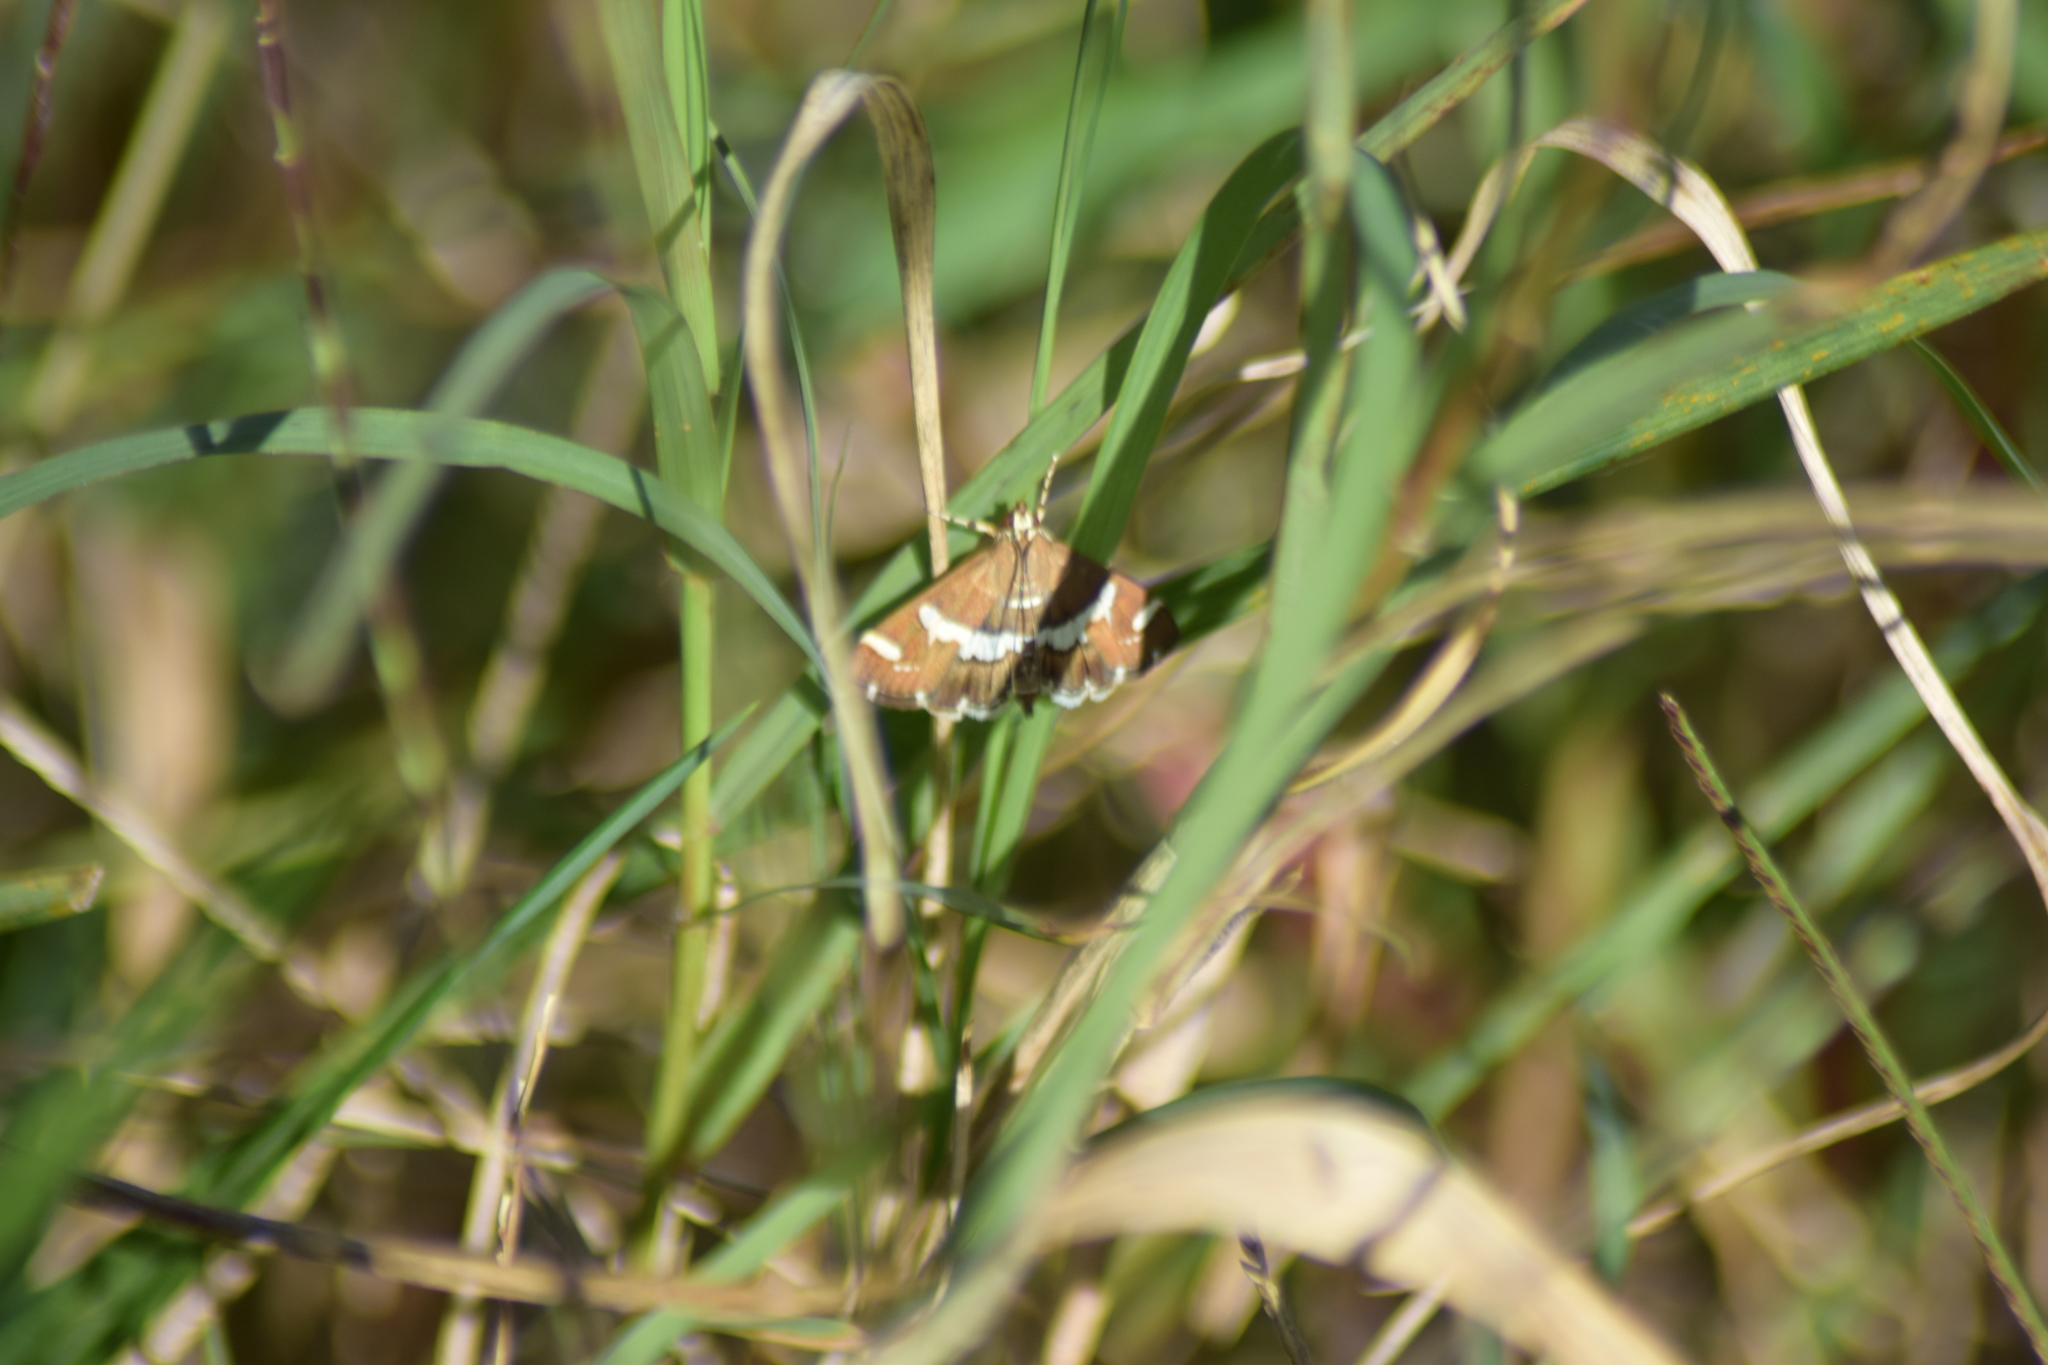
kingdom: Animalia
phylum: Arthropoda
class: Insecta
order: Lepidoptera
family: Crambidae
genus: Spoladea
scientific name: Spoladea recurvalis
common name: Beet webworm moth
